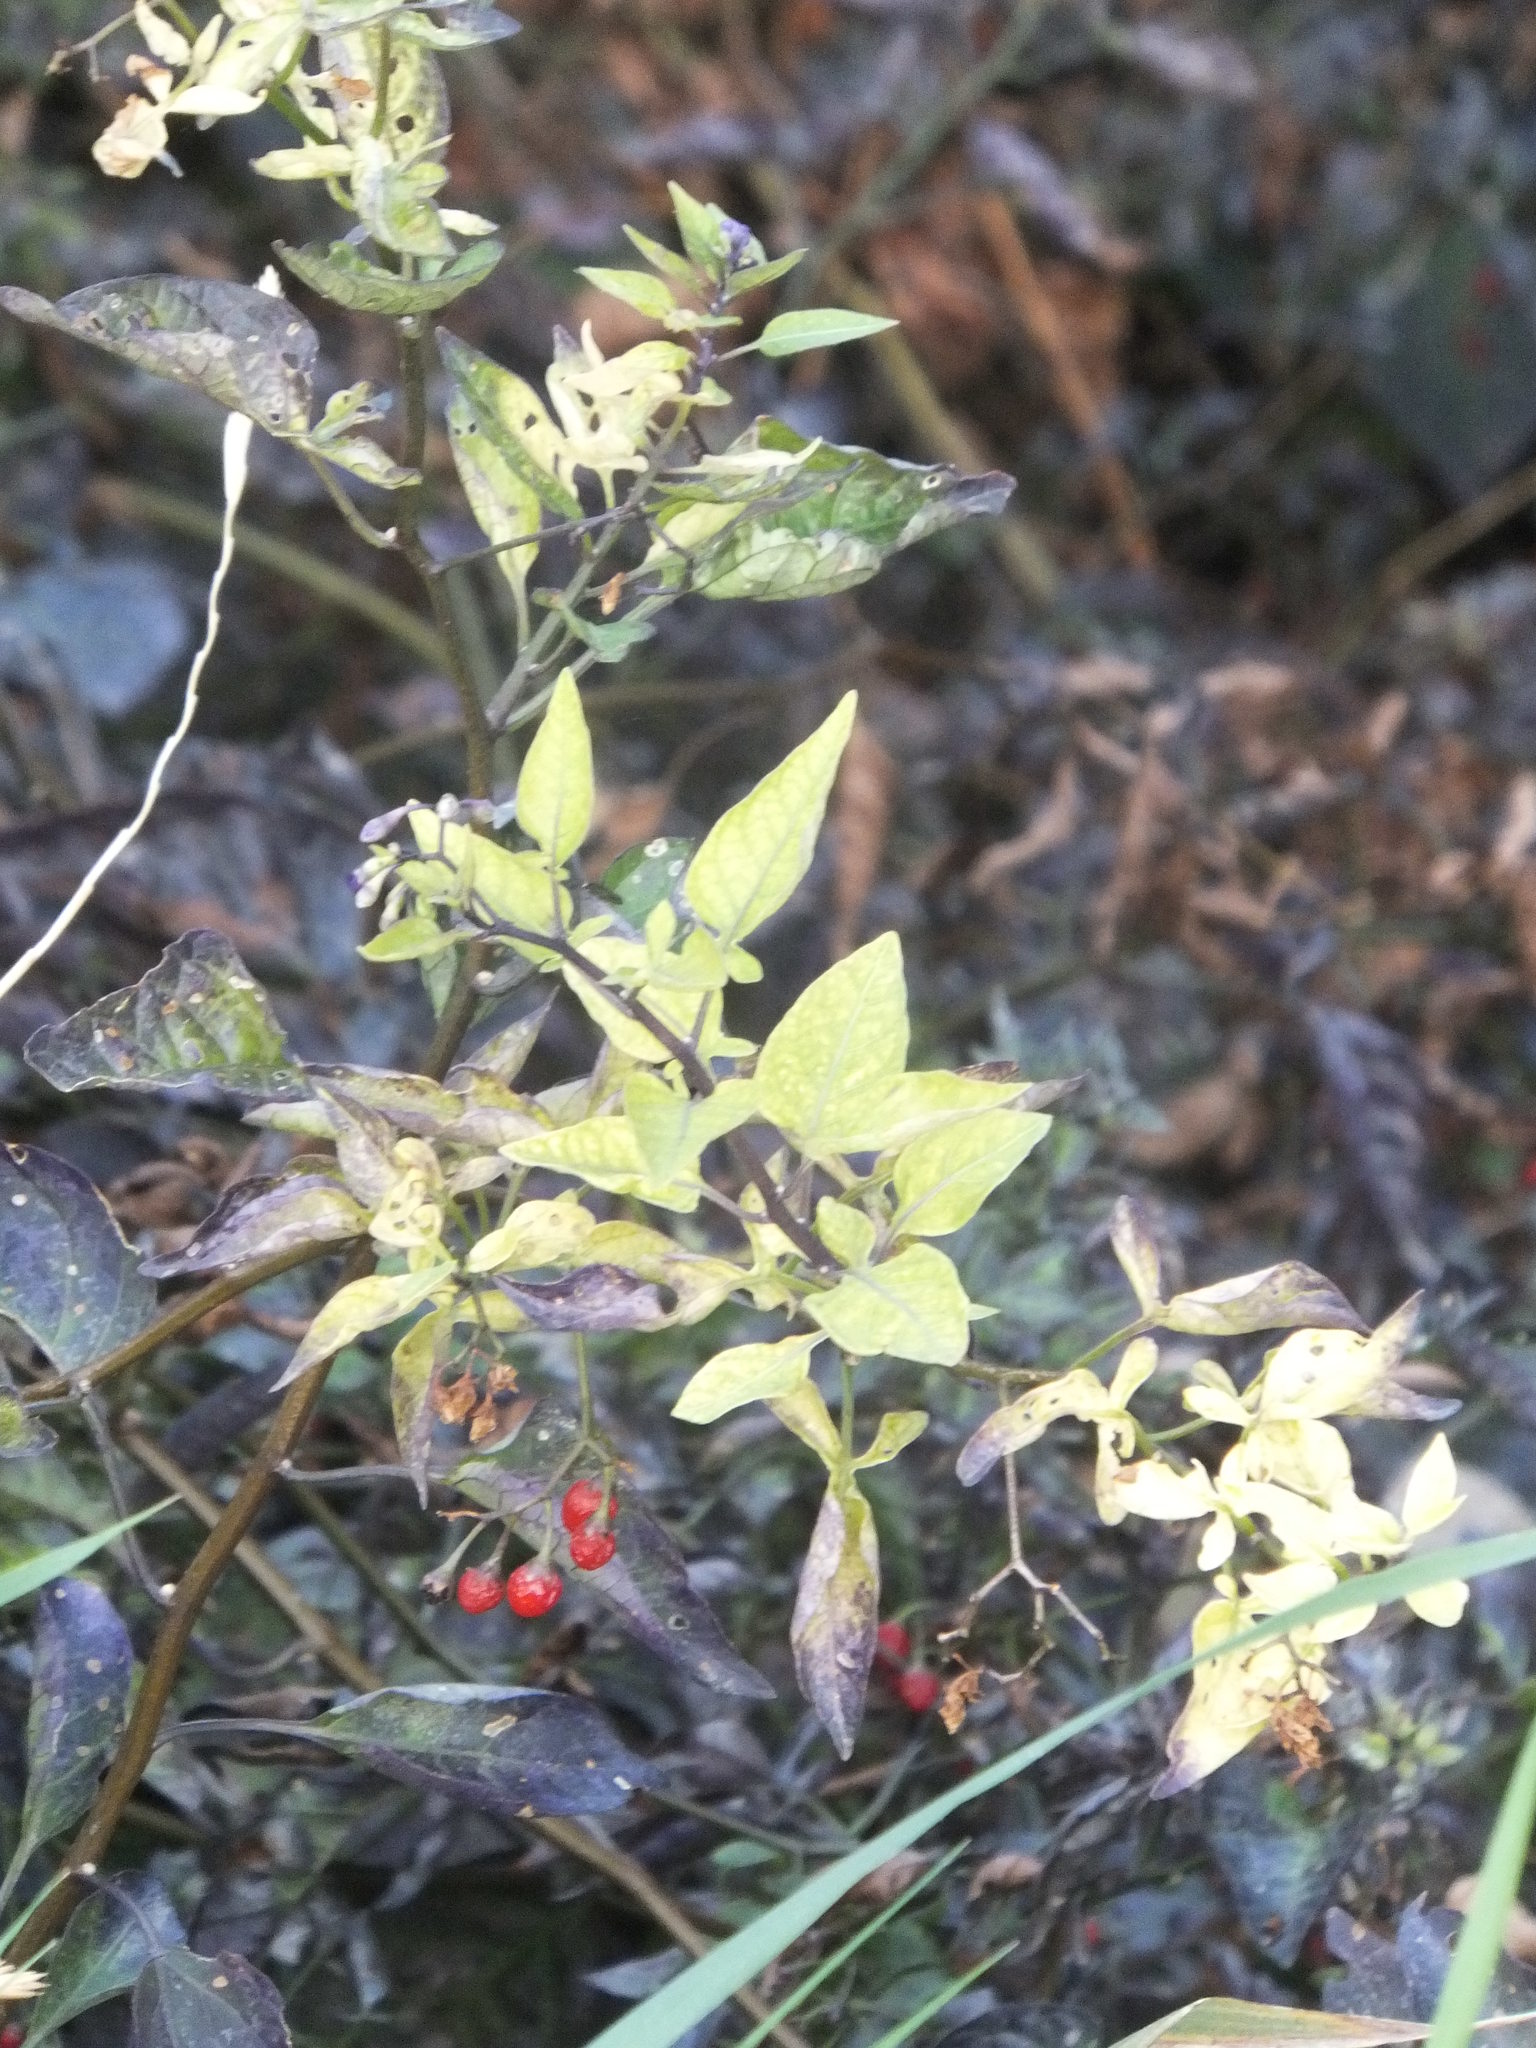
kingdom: Plantae
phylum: Tracheophyta
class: Magnoliopsida
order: Solanales
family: Solanaceae
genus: Solanum
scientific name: Solanum dulcamara
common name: Climbing nightshade
